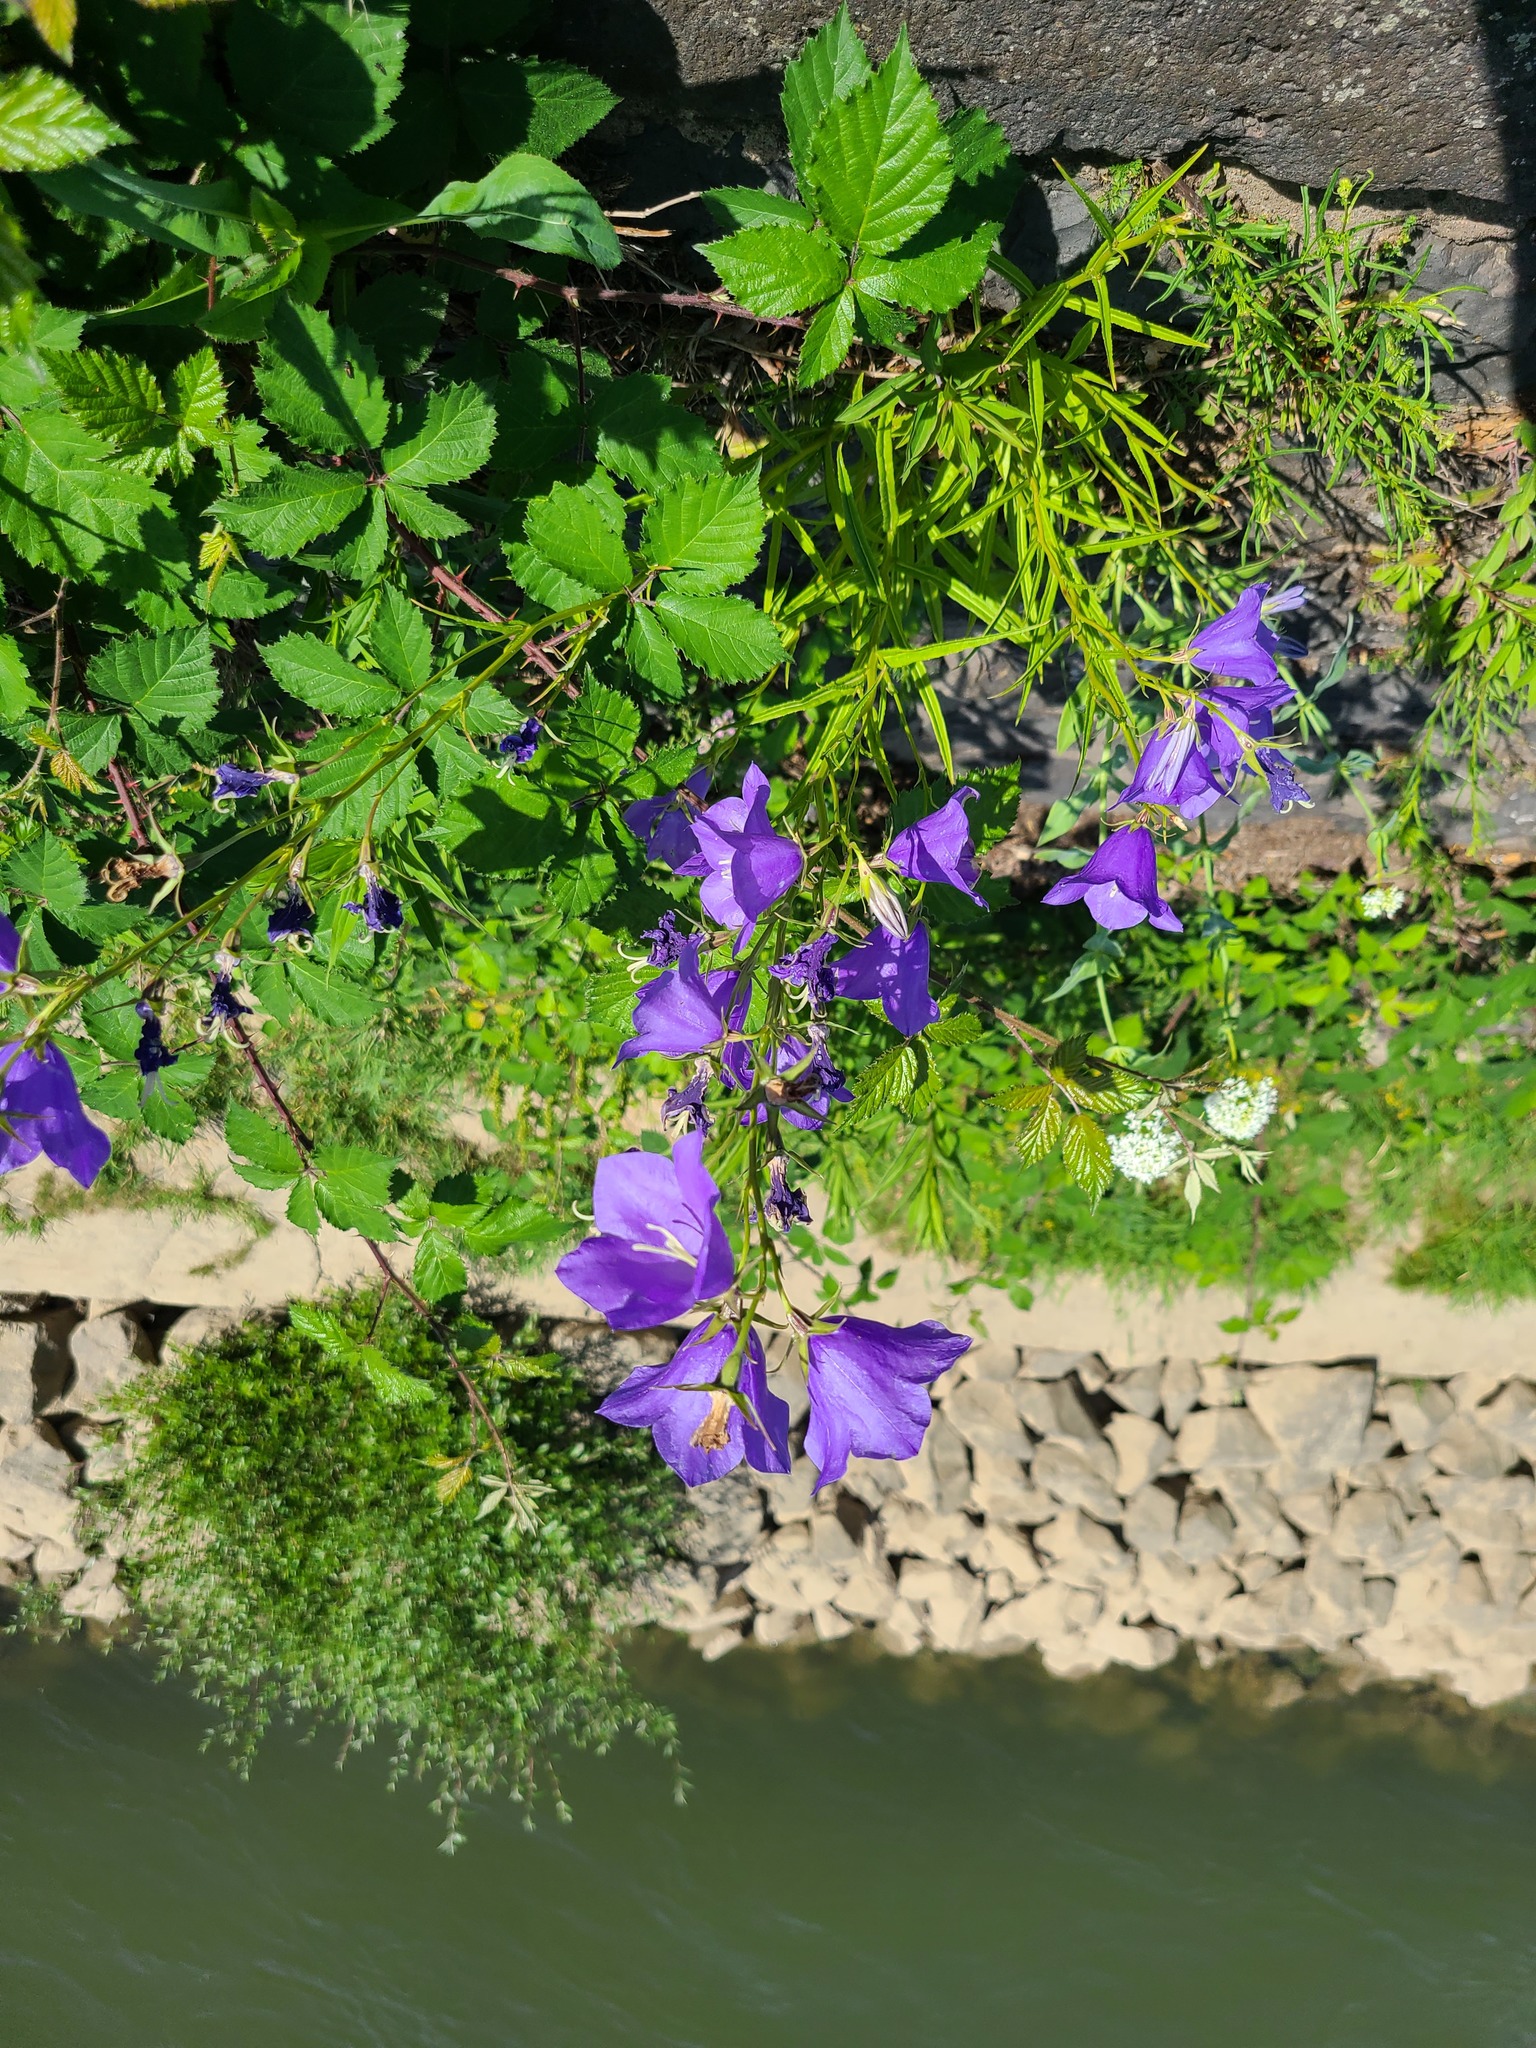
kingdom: Plantae
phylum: Tracheophyta
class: Magnoliopsida
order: Asterales
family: Campanulaceae
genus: Campanula
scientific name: Campanula persicifolia
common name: Peach-leaved bellflower
